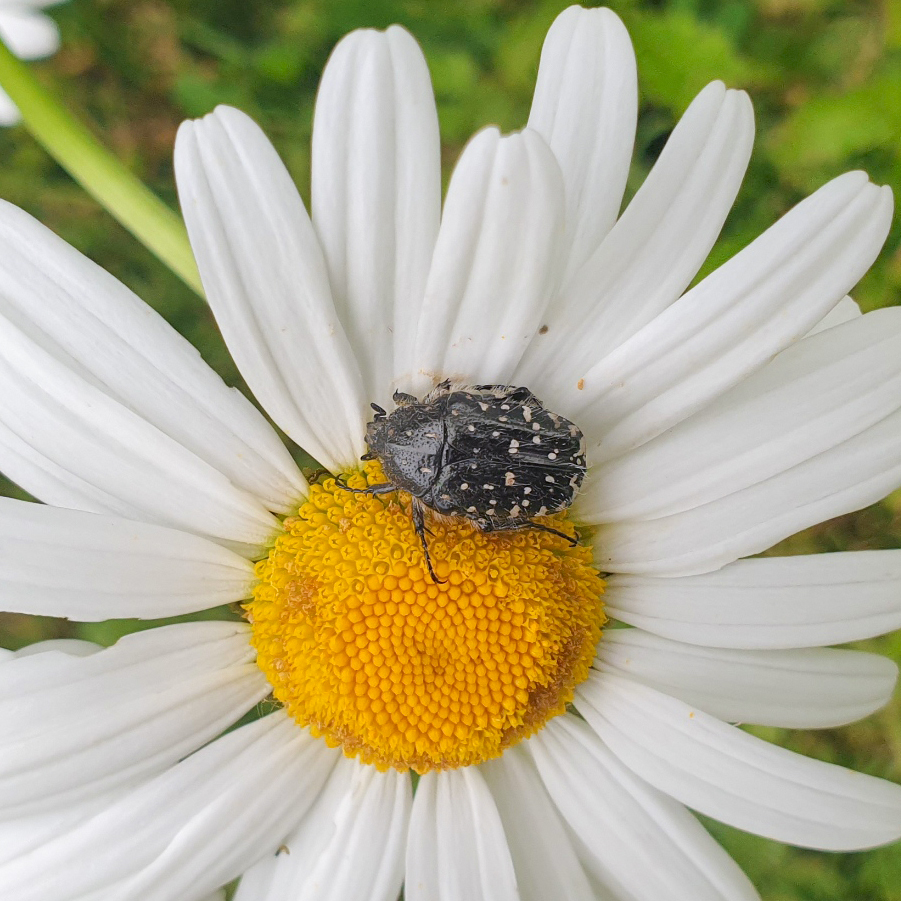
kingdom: Animalia
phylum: Arthropoda
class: Insecta
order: Coleoptera
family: Scarabaeidae
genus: Oxythyrea
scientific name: Oxythyrea funesta
